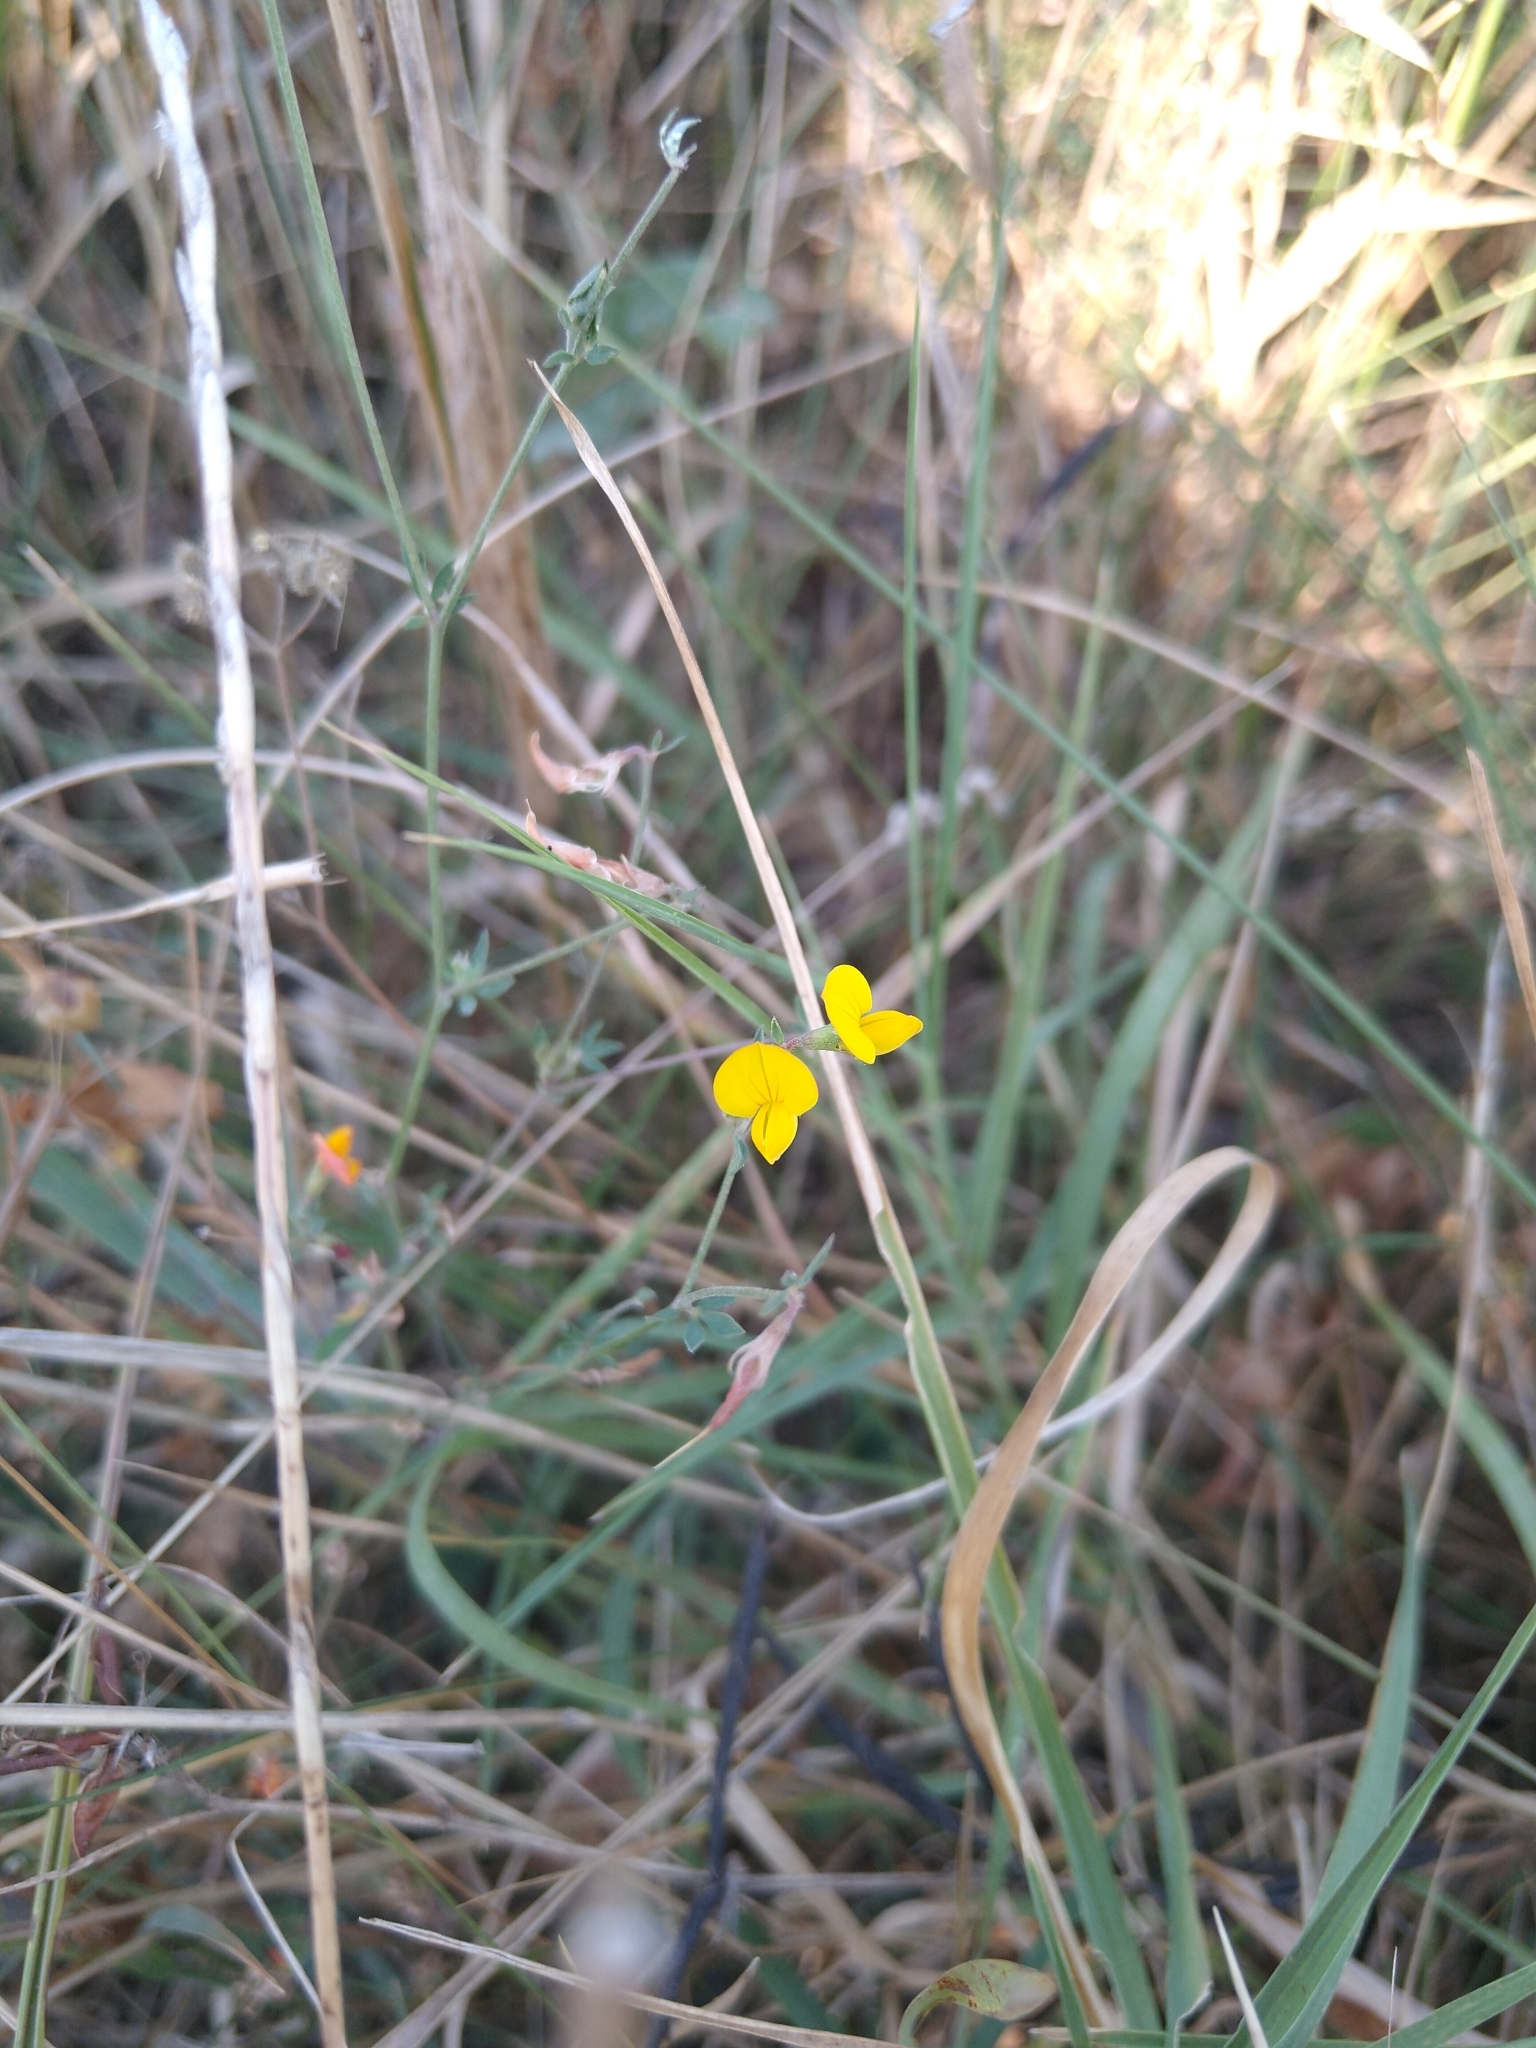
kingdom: Plantae
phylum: Tracheophyta
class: Magnoliopsida
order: Fabales
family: Fabaceae
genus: Lotus
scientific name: Lotus corniculatus
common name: Common bird's-foot-trefoil
